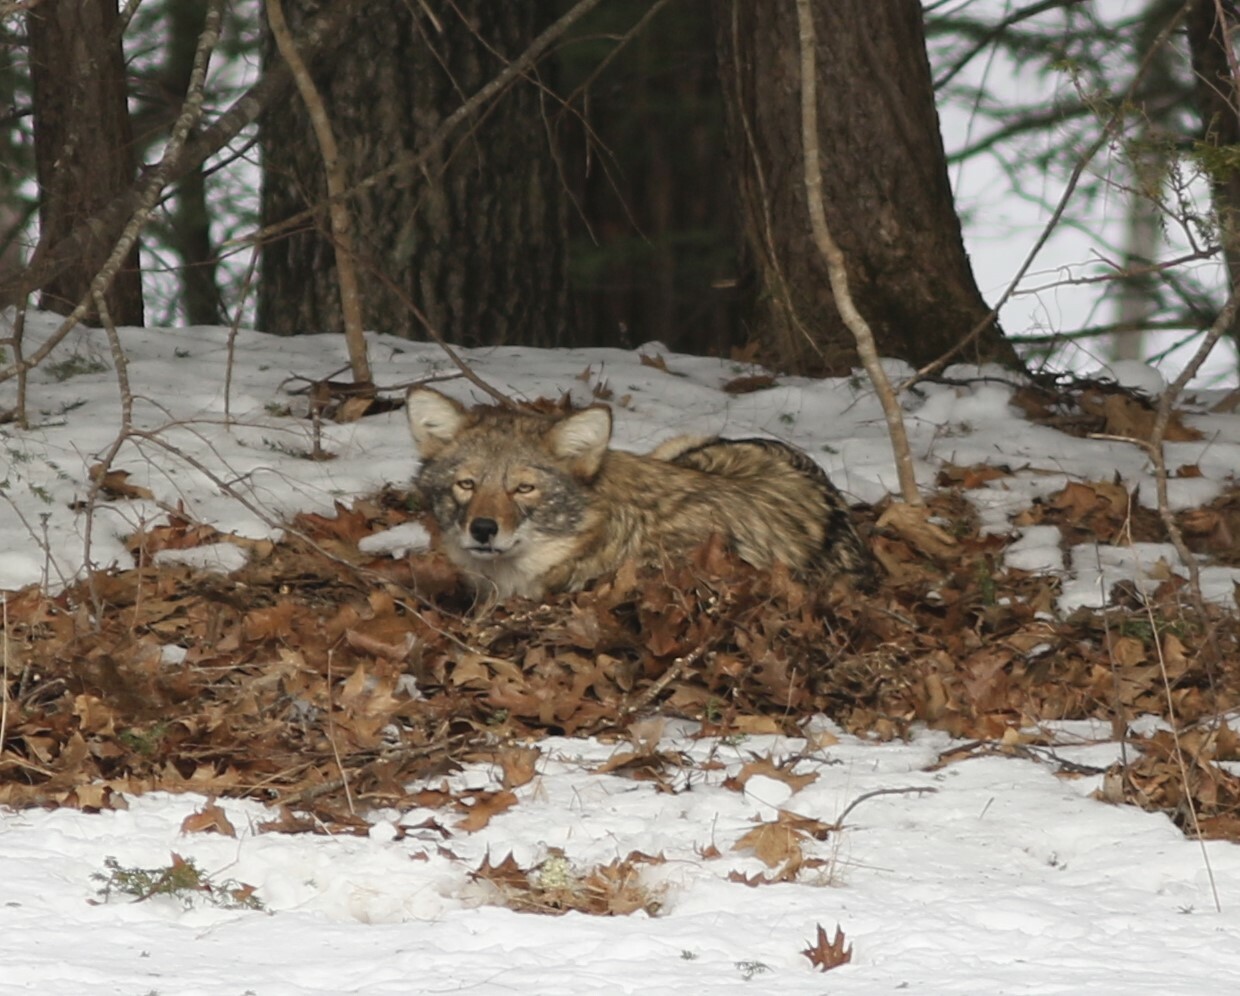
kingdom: Animalia
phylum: Chordata
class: Mammalia
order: Carnivora
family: Canidae
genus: Canis
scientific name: Canis latrans
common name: Coyote
